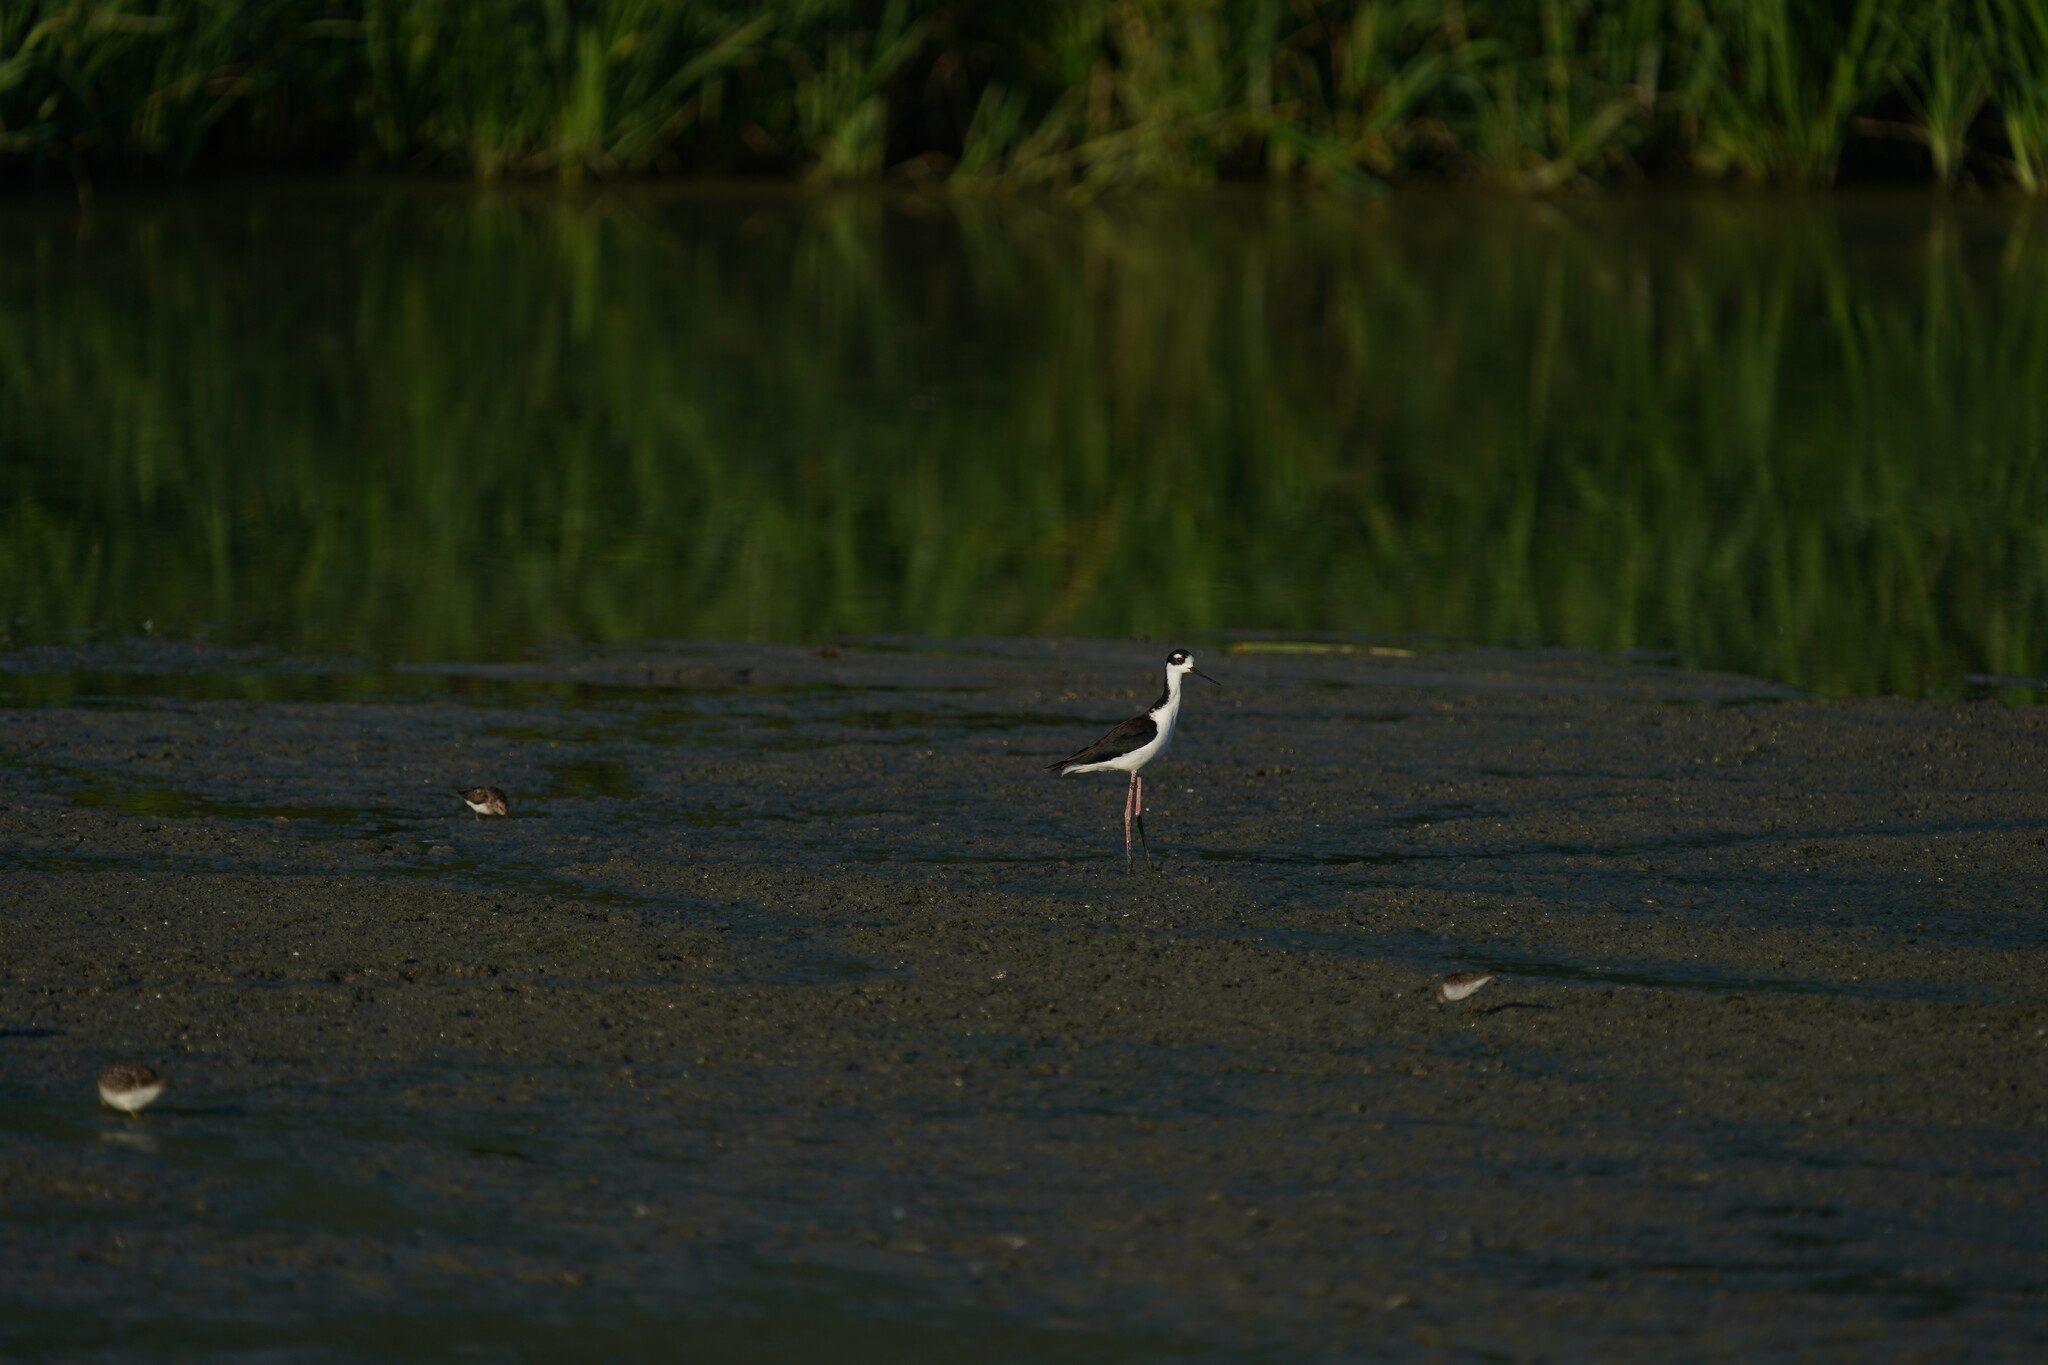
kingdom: Animalia
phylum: Chordata
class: Aves
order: Charadriiformes
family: Recurvirostridae
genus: Himantopus
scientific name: Himantopus mexicanus
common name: Black-necked stilt
